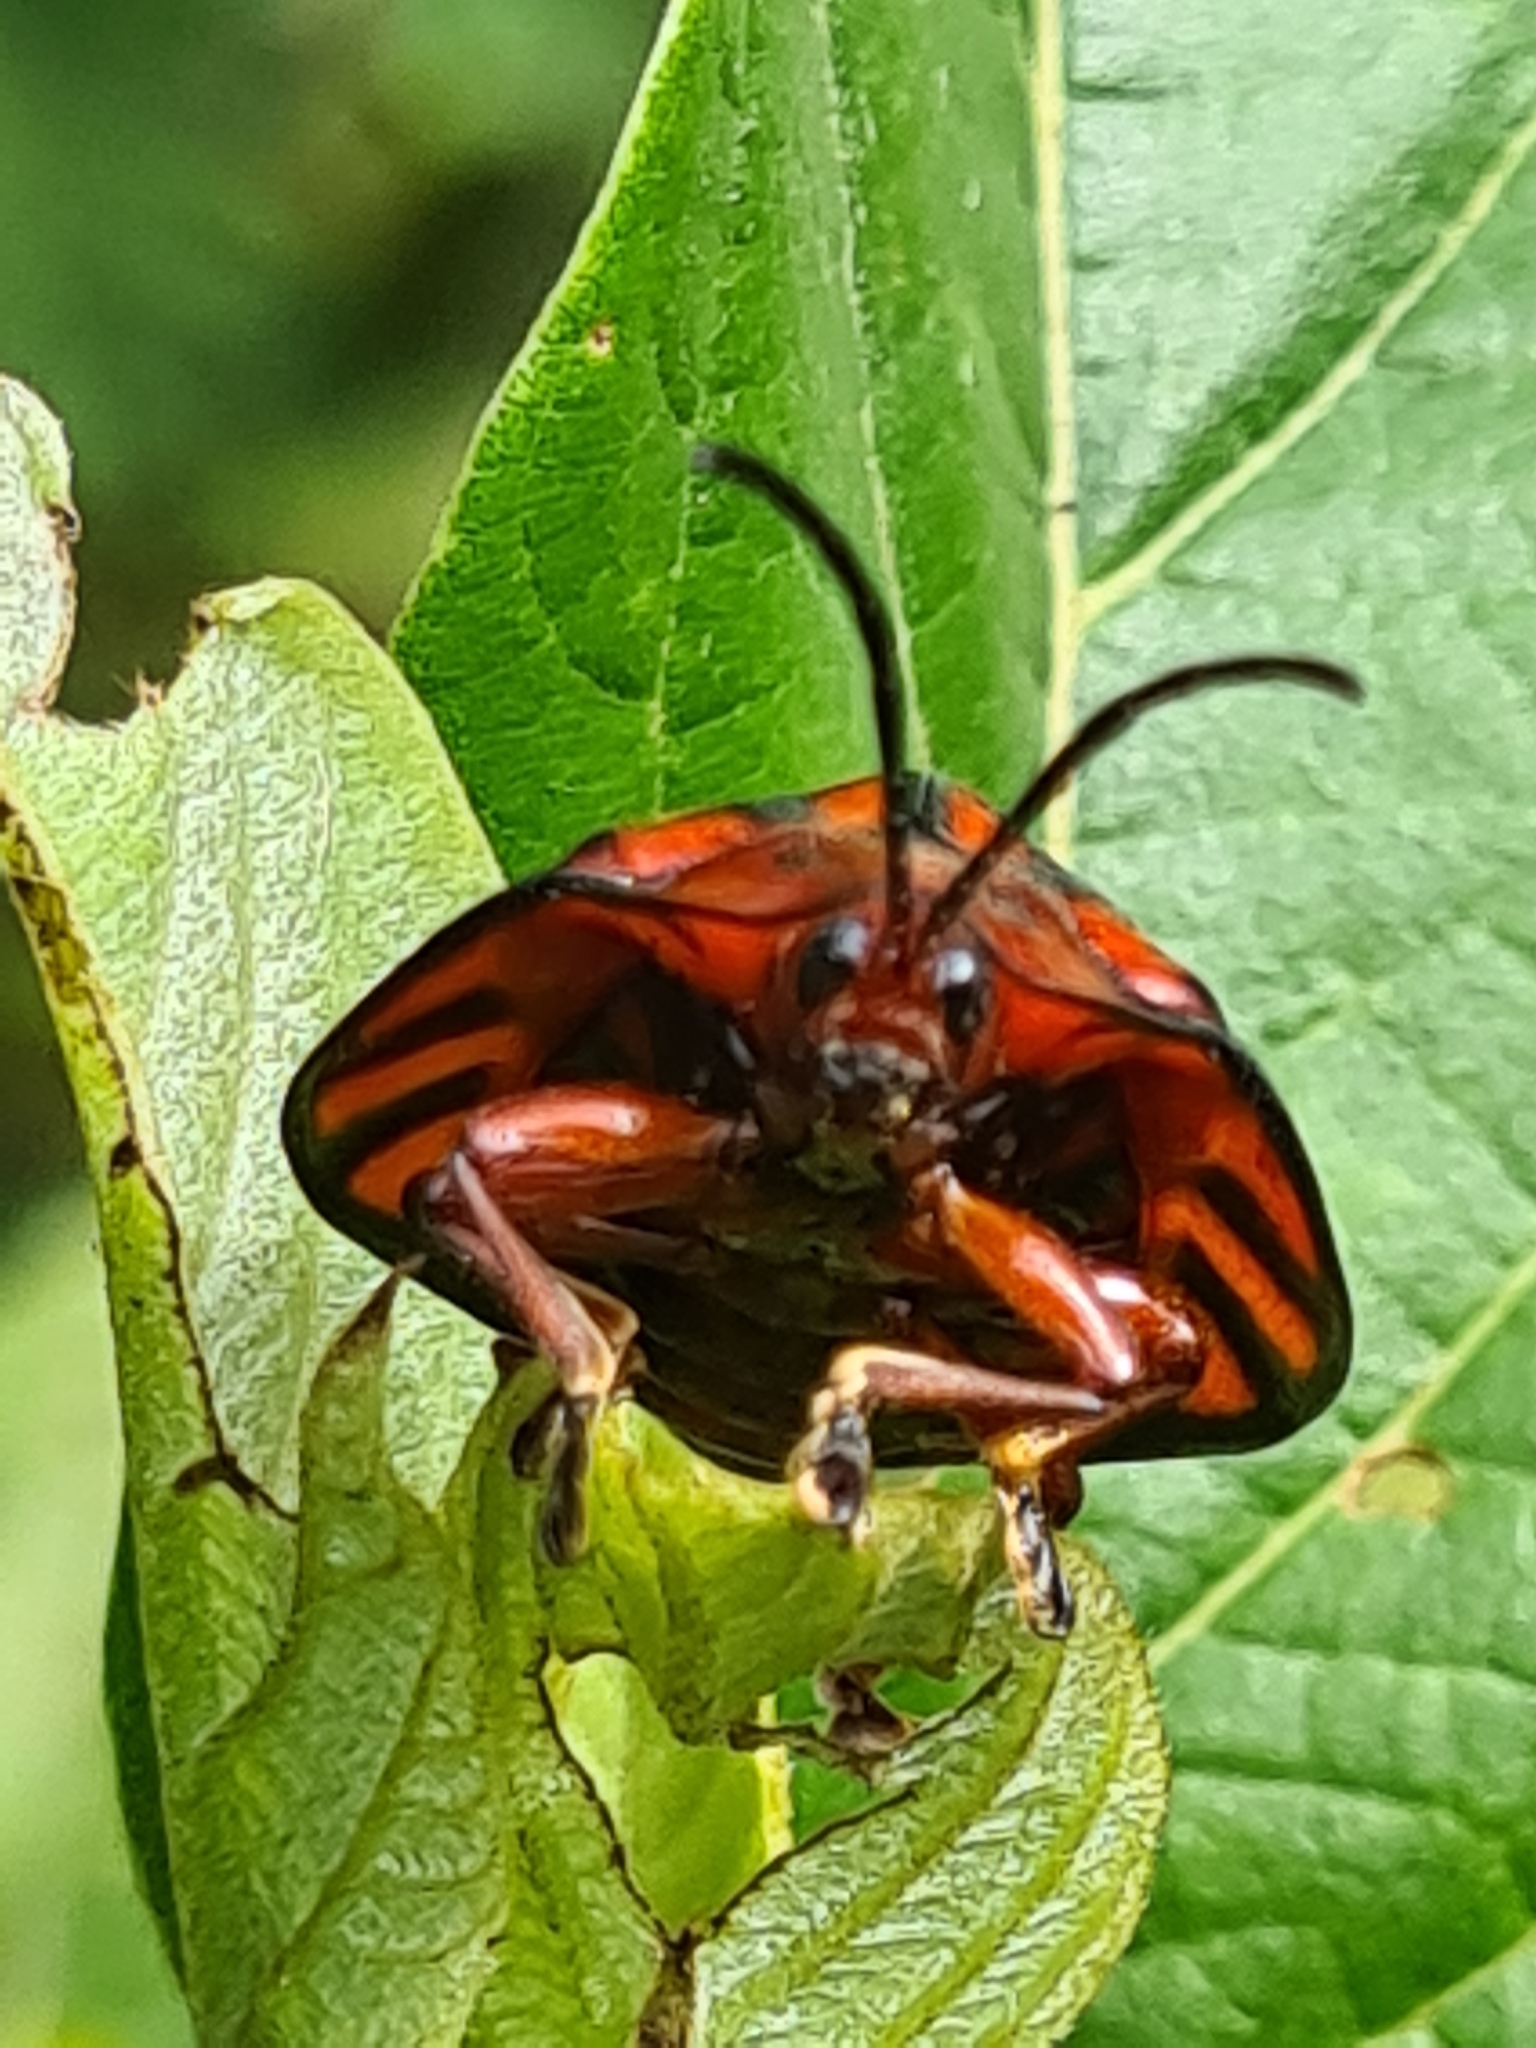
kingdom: Animalia
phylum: Arthropoda
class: Insecta
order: Coleoptera
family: Chrysomelidae
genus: Discomorpha
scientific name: Discomorpha variegata
